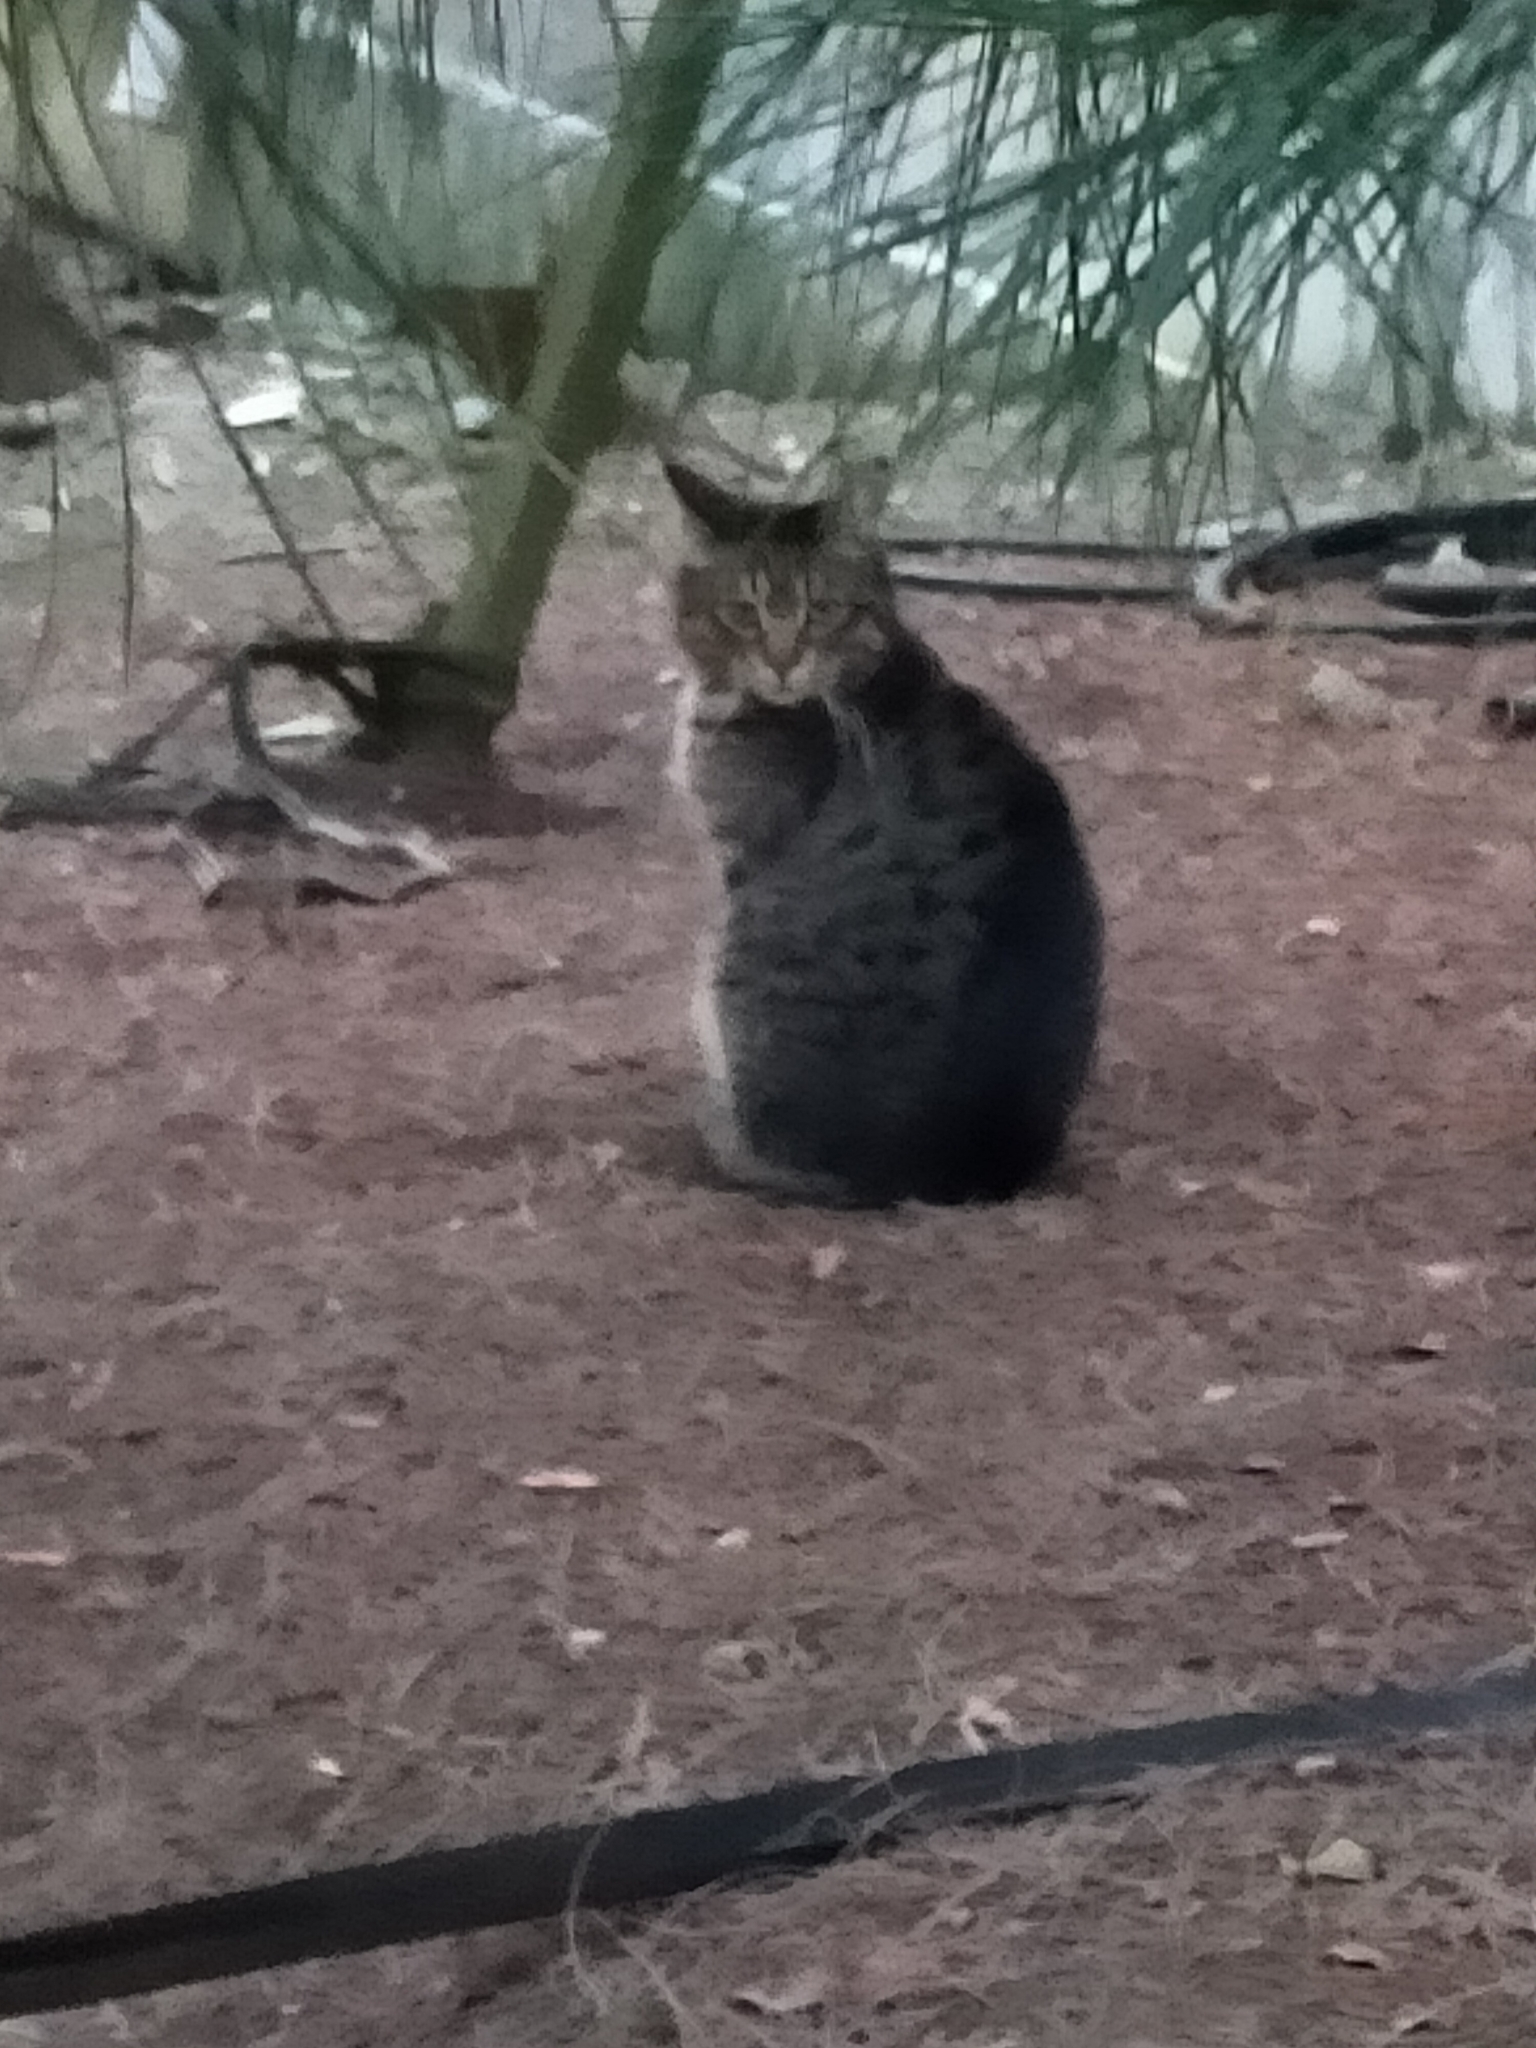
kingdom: Animalia
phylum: Chordata
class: Mammalia
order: Carnivora
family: Felidae
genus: Felis
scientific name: Felis catus
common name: Domestic cat
